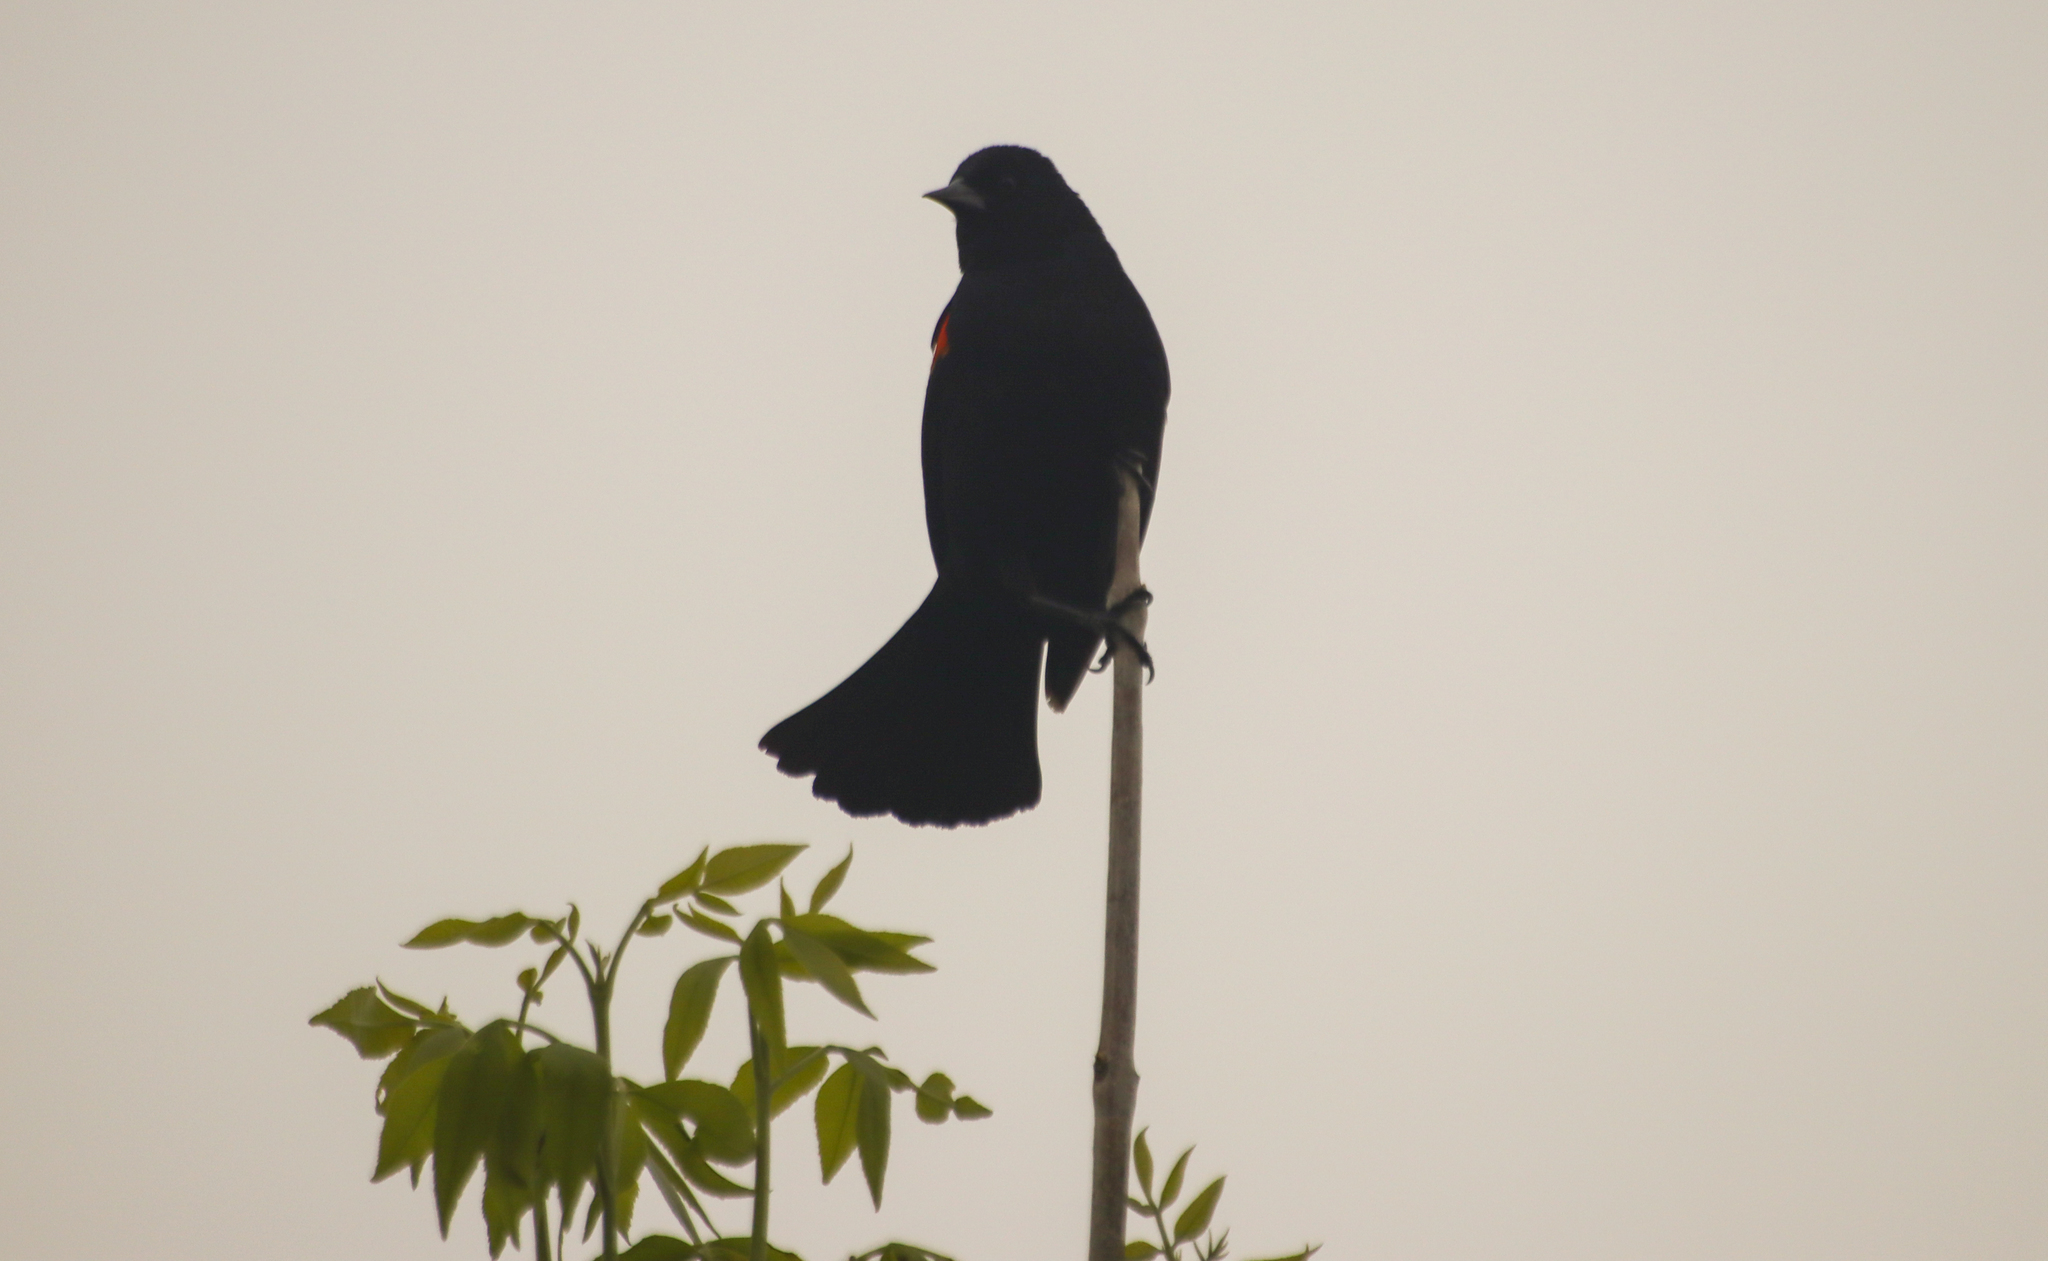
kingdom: Animalia
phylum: Chordata
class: Aves
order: Passeriformes
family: Icteridae
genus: Agelaius
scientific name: Agelaius phoeniceus
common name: Red-winged blackbird
